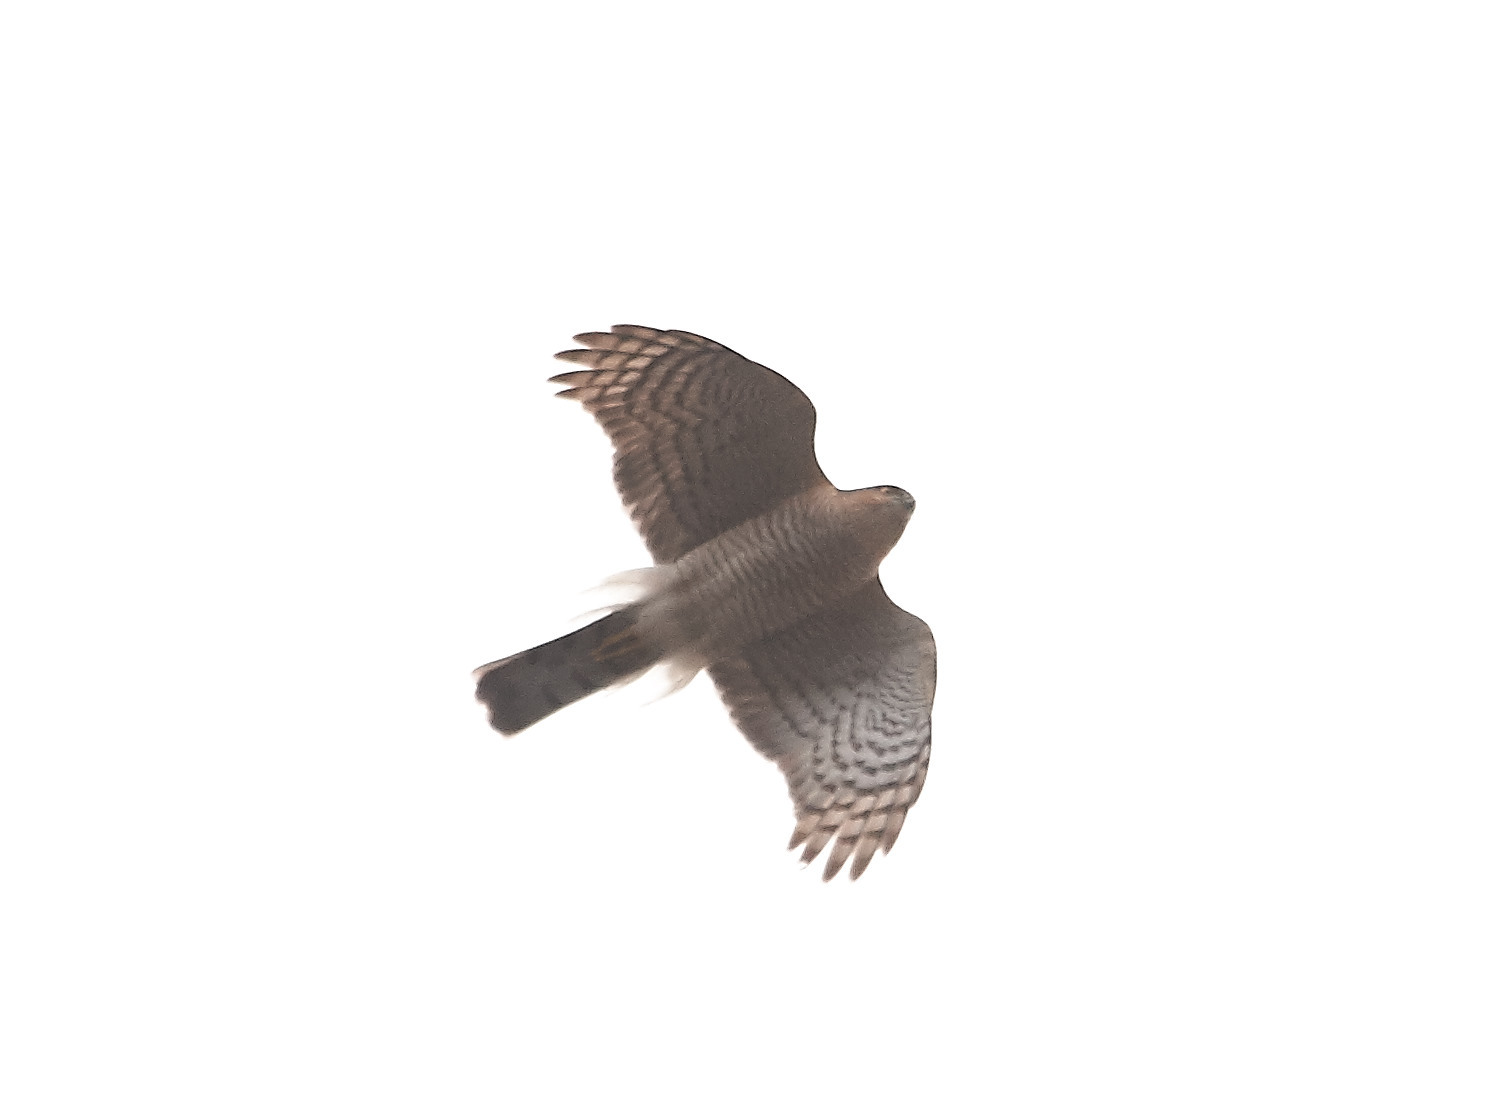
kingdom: Animalia
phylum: Chordata
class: Aves
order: Accipitriformes
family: Accipitridae
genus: Accipiter
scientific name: Accipiter nisus
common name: Eurasian sparrowhawk
